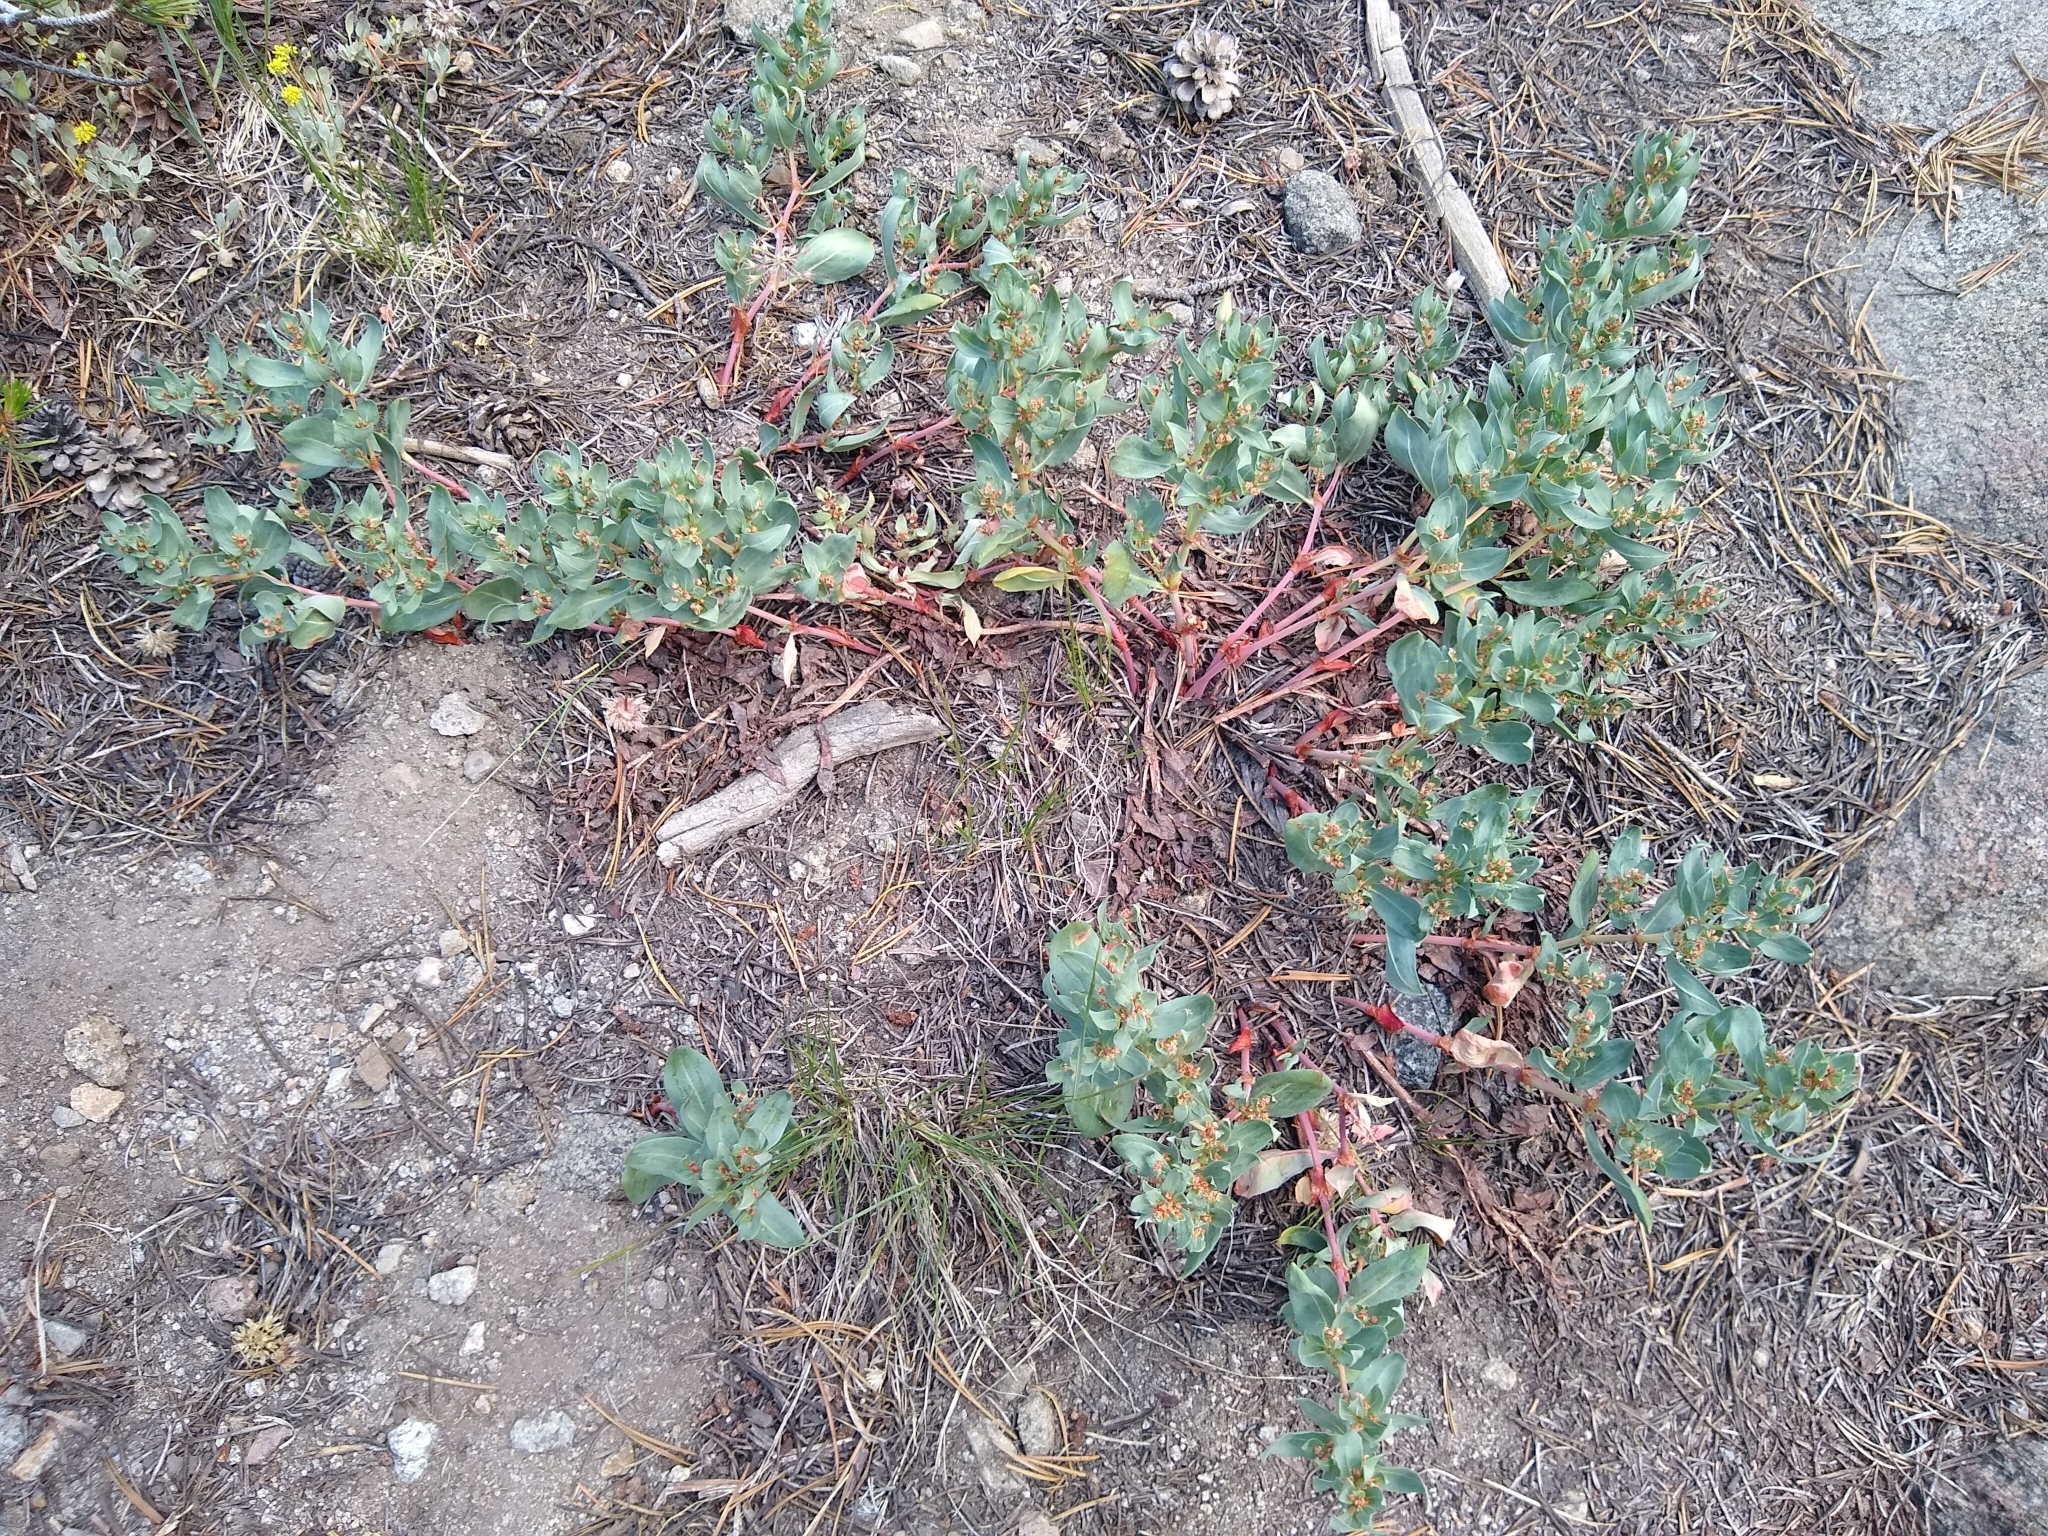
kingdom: Plantae
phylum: Tracheophyta
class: Magnoliopsida
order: Caryophyllales
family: Polygonaceae
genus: Koenigia
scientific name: Koenigia davisiae
